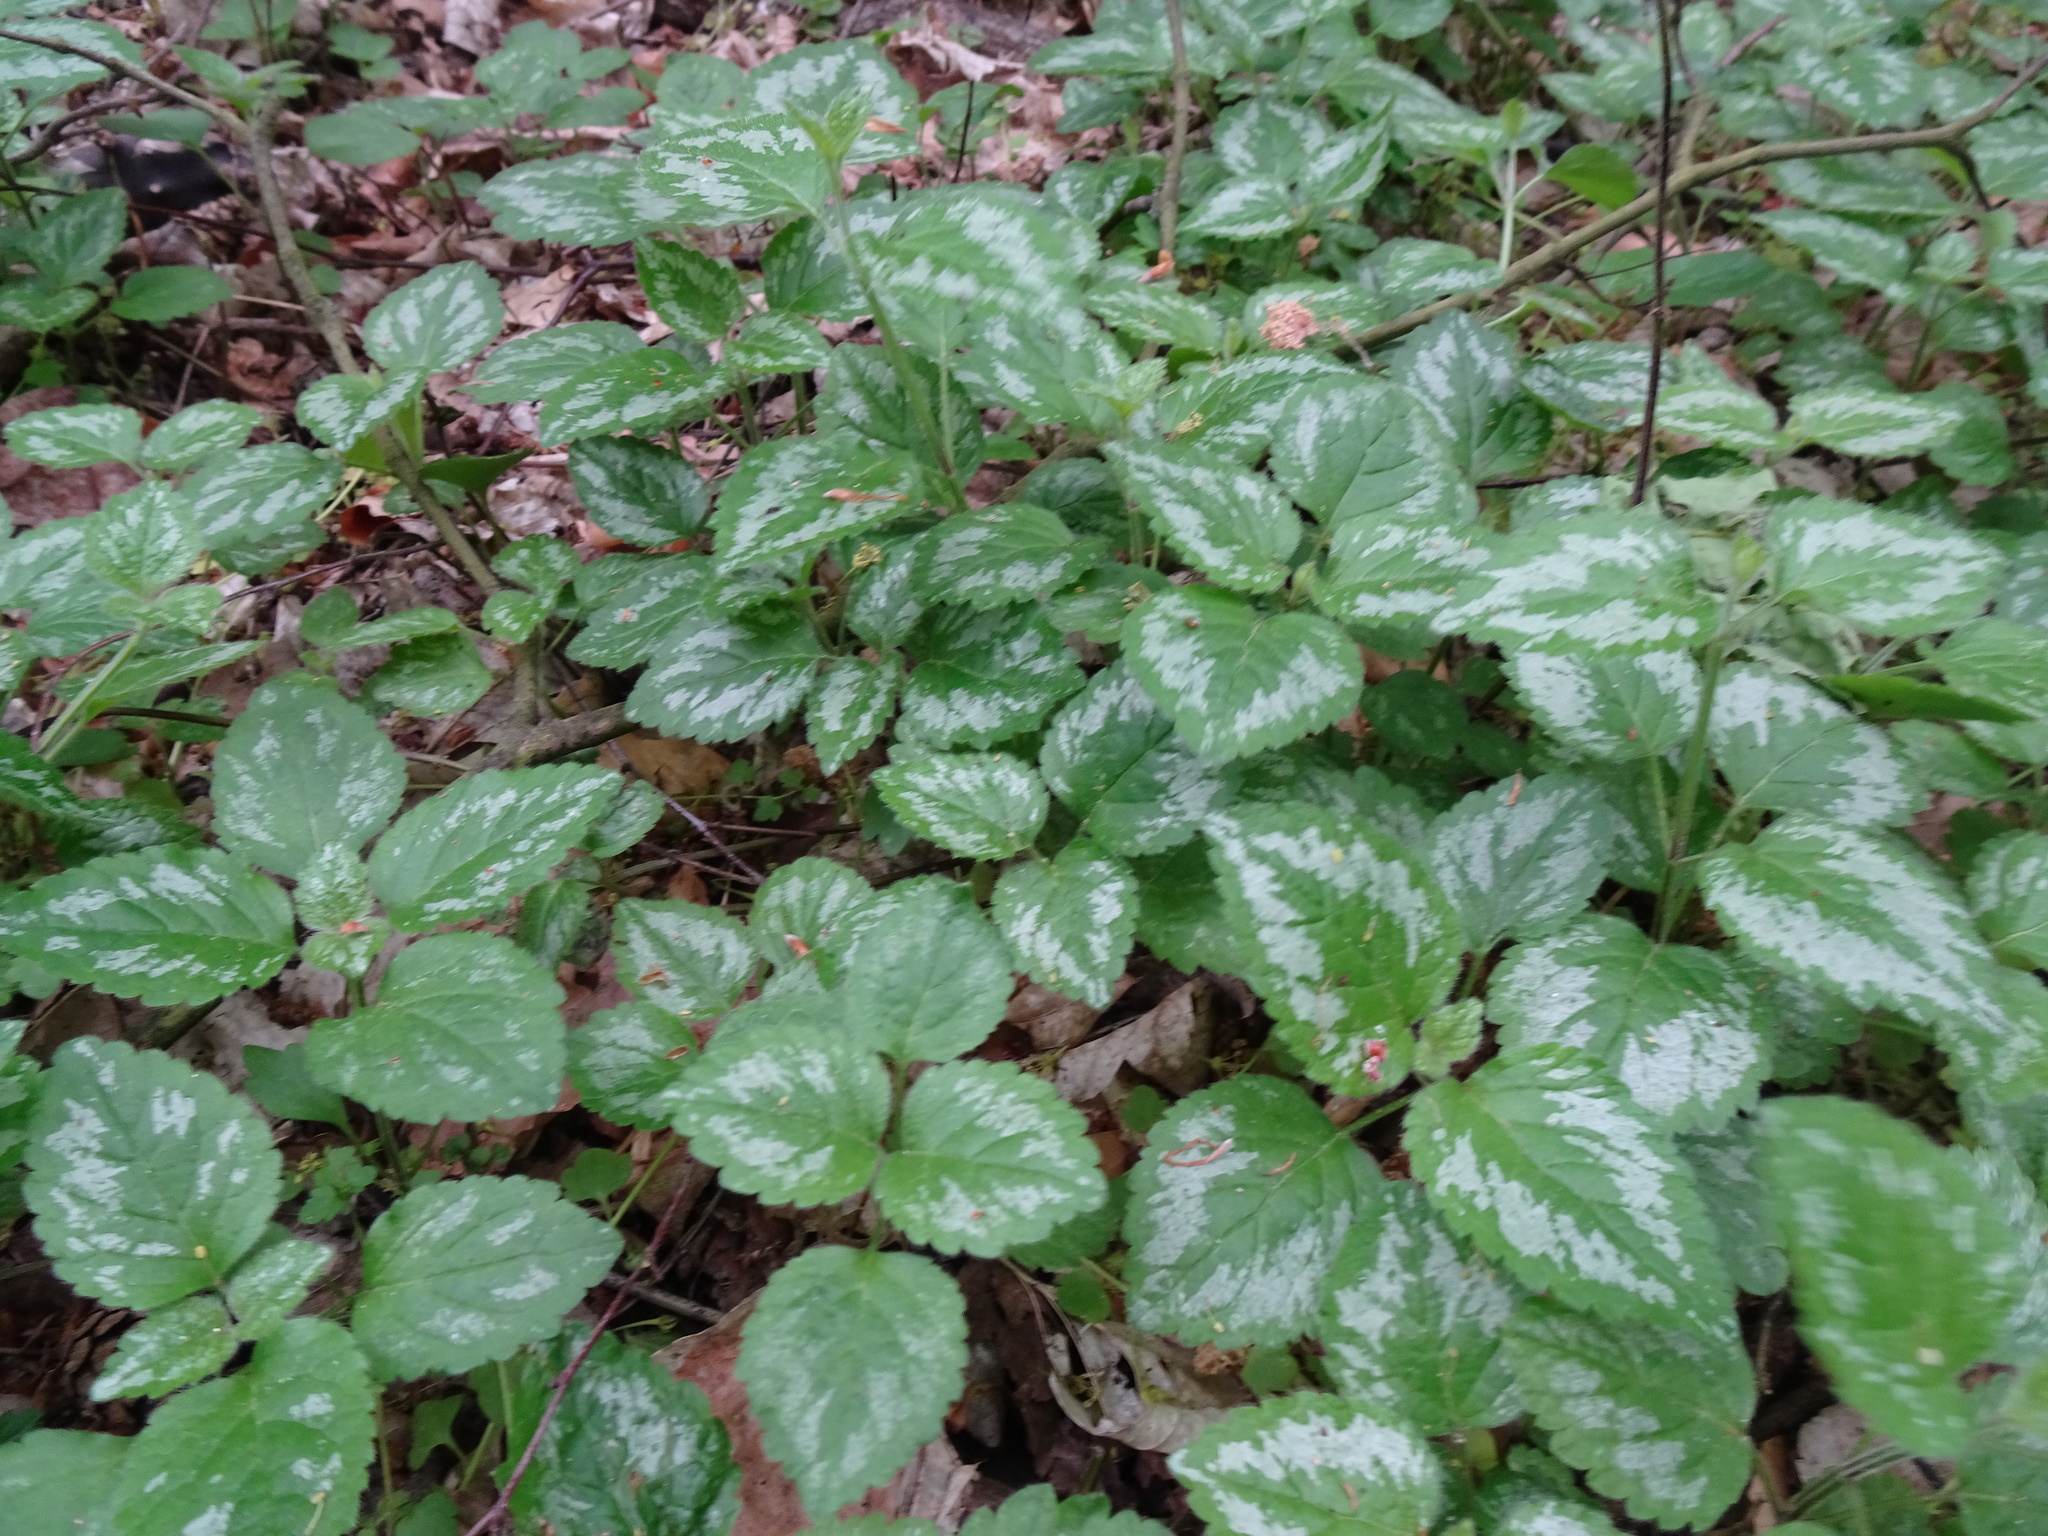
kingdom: Plantae
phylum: Tracheophyta
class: Magnoliopsida
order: Lamiales
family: Lamiaceae
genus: Lamium
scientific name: Lamium galeobdolon
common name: Yellow archangel
